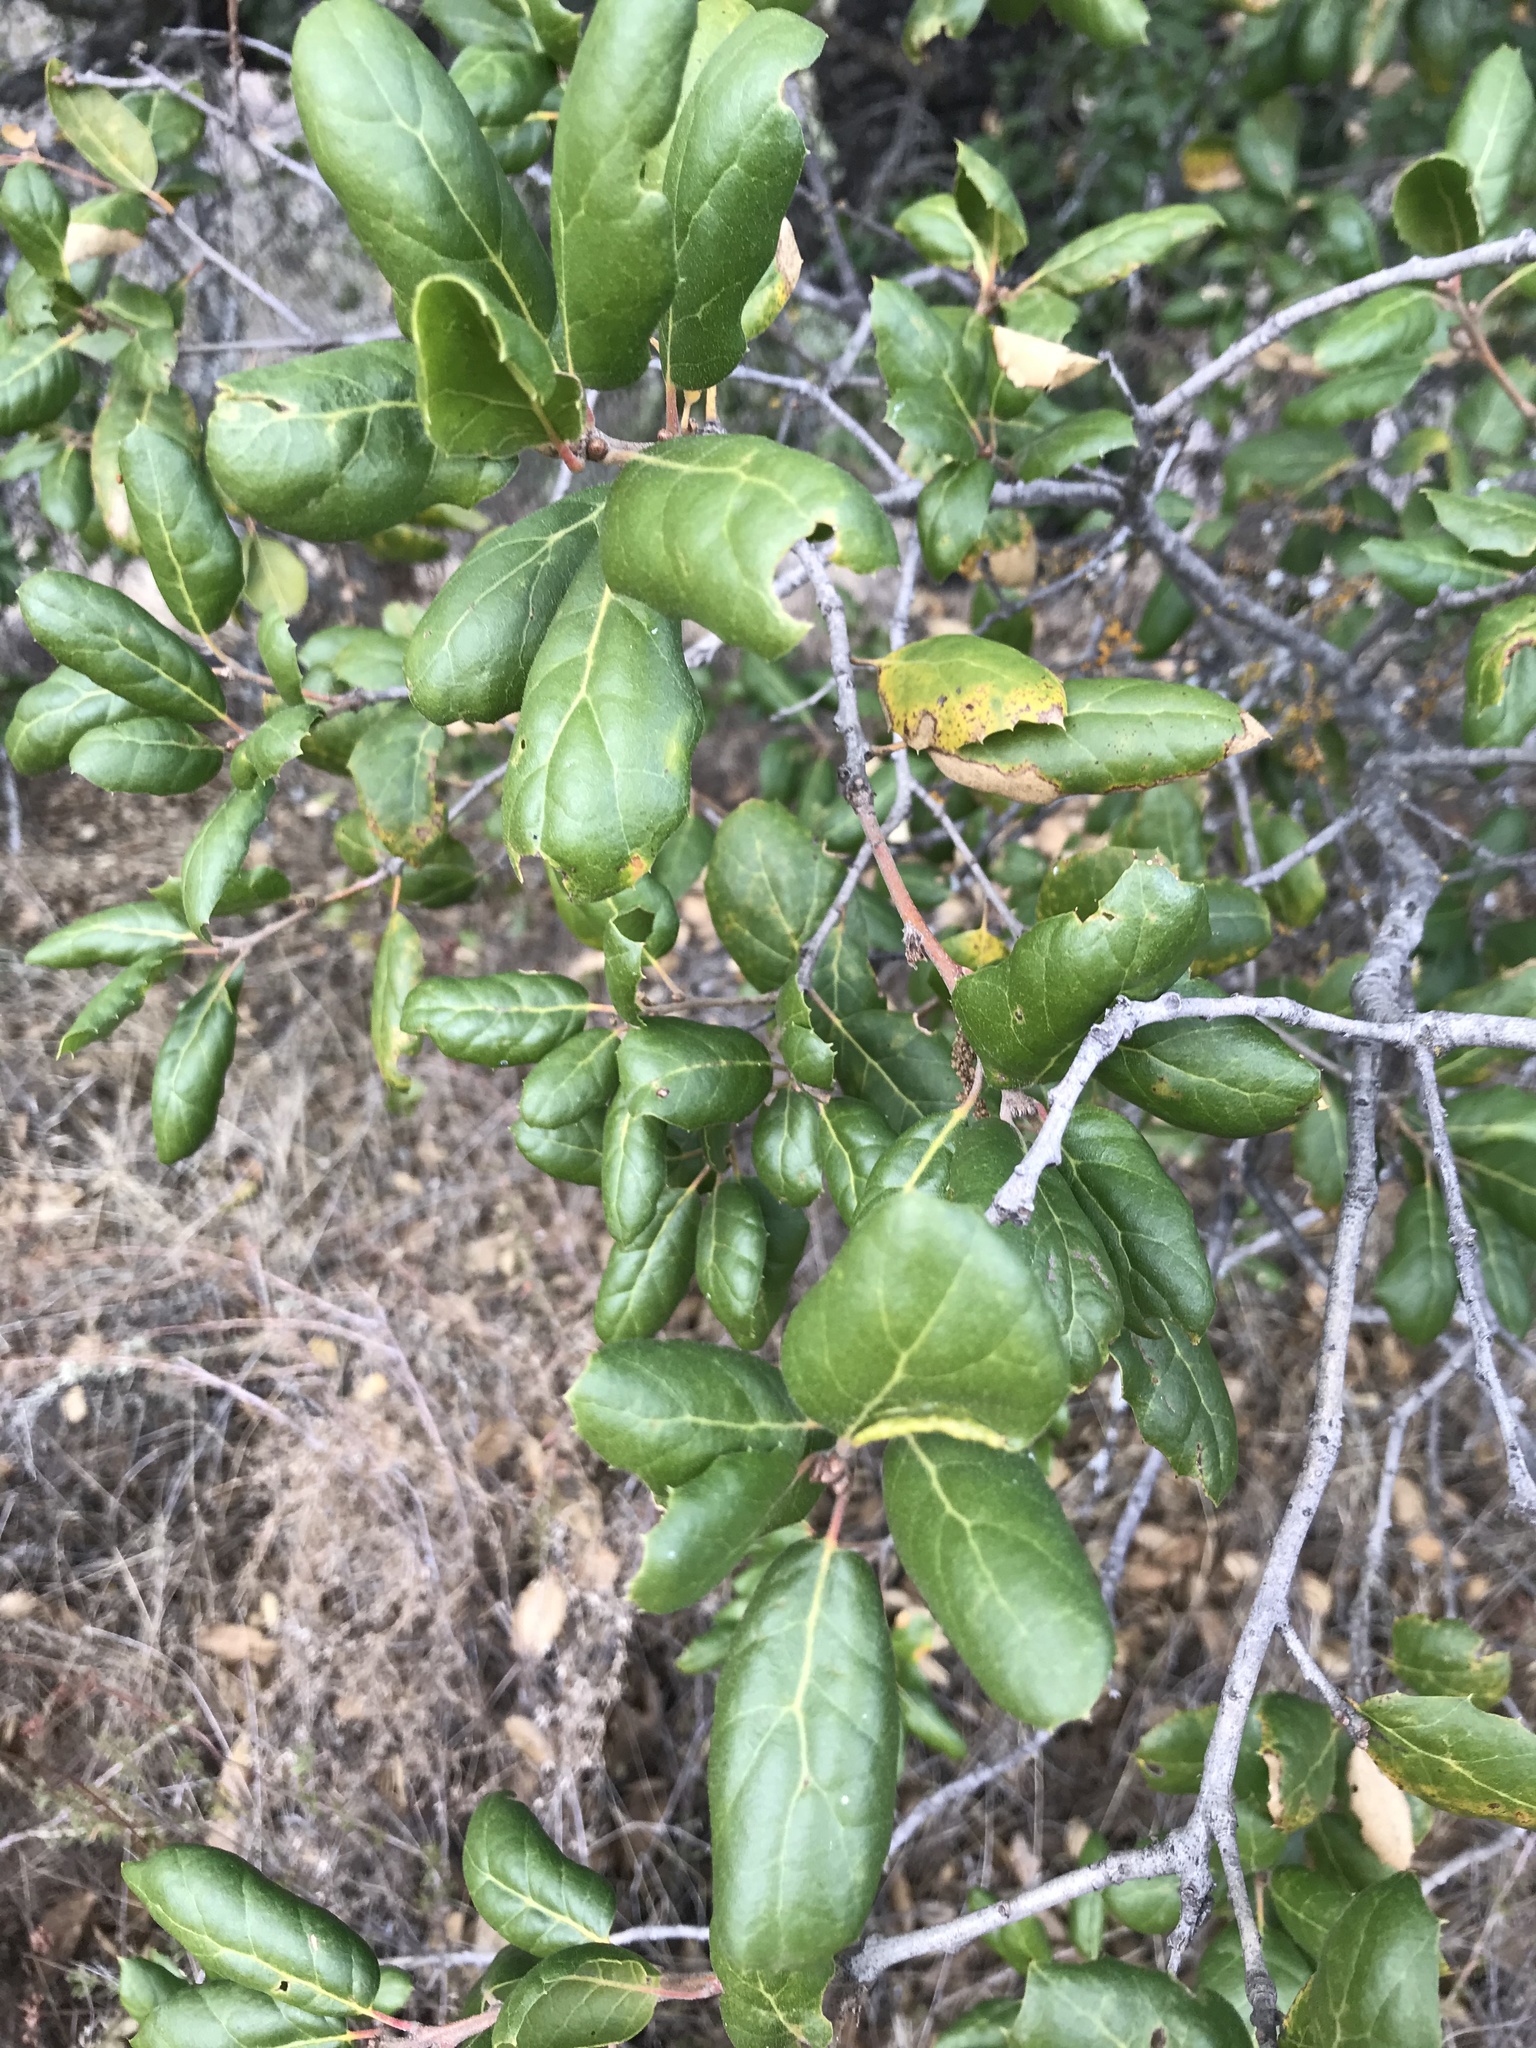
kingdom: Plantae
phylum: Tracheophyta
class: Magnoliopsida
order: Fagales
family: Fagaceae
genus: Quercus
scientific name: Quercus agrifolia
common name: California live oak
